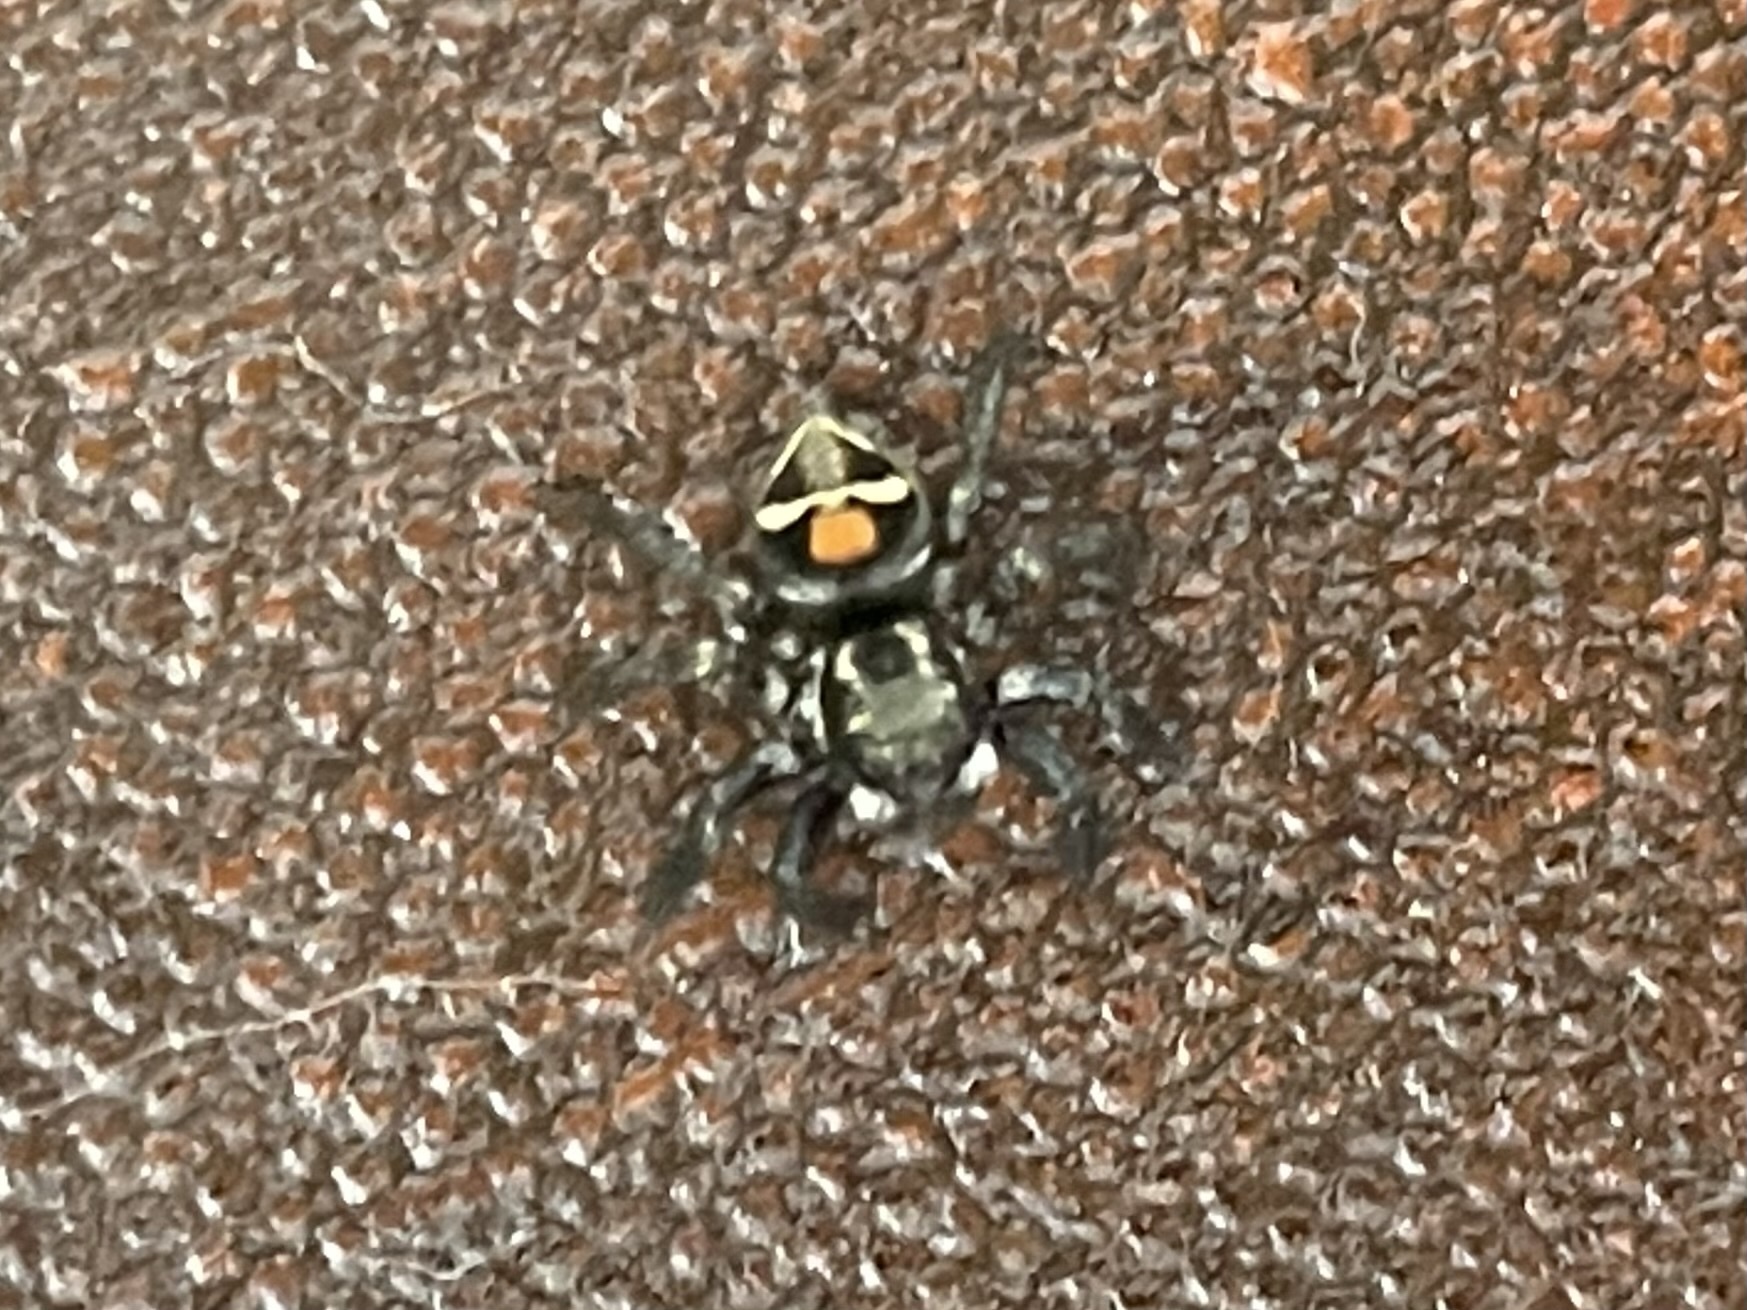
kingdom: Animalia
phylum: Arthropoda
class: Arachnida
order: Araneae
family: Salticidae
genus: Corythalia
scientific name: Corythalia opima
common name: Jumping spiders
